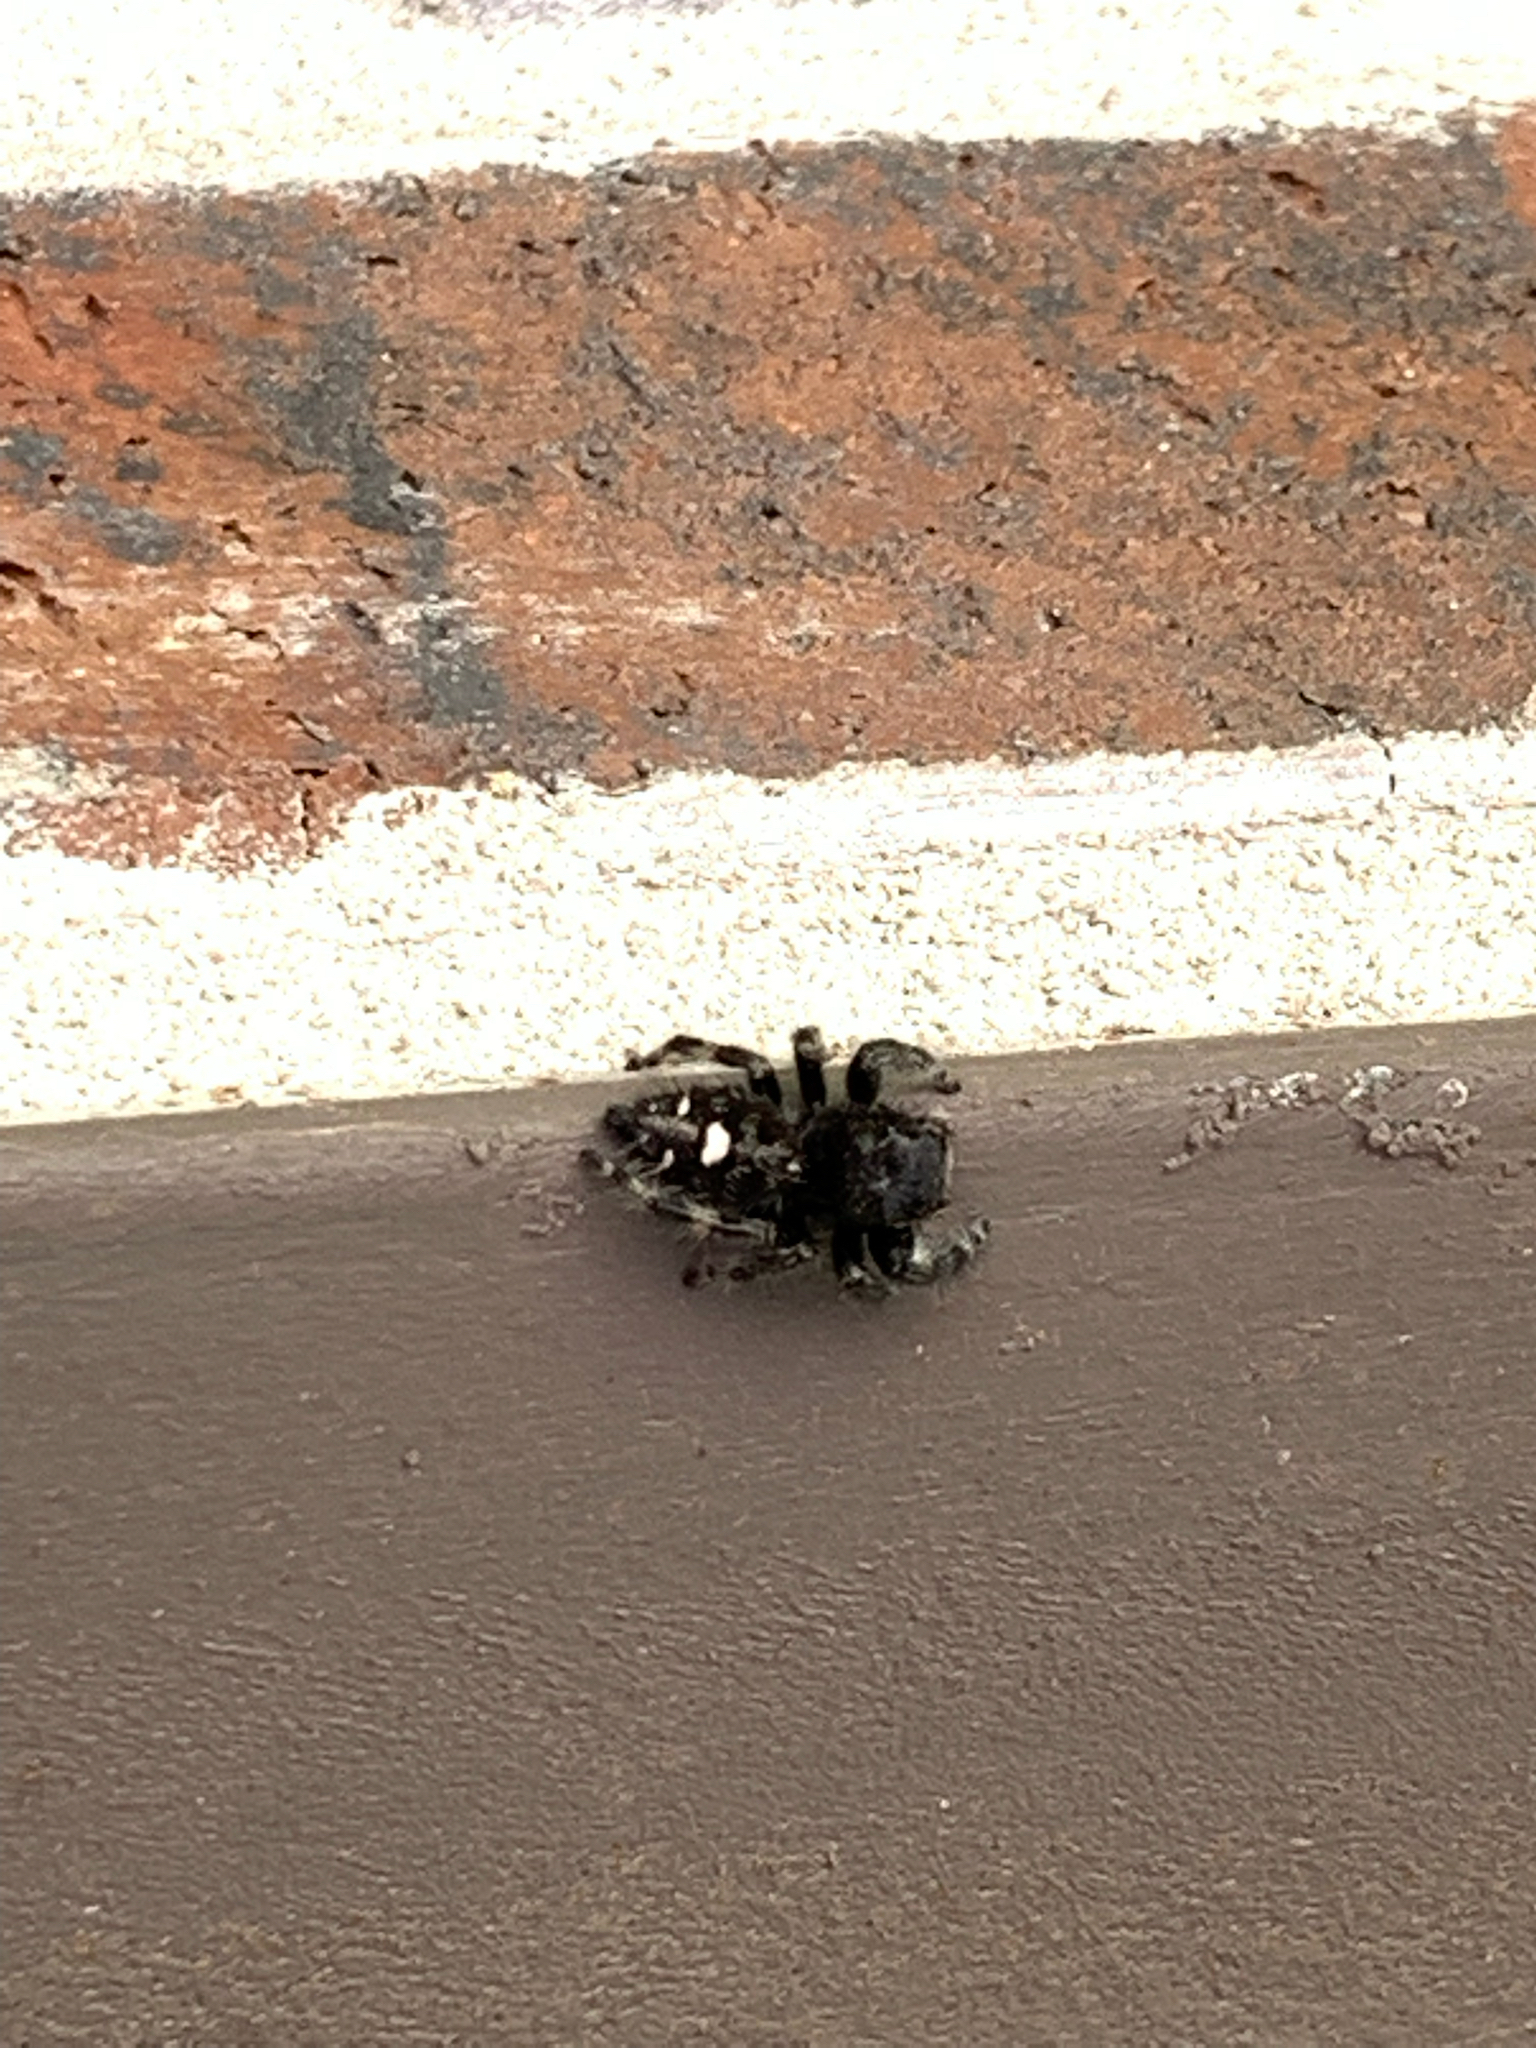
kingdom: Animalia
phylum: Arthropoda
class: Arachnida
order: Araneae
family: Salticidae
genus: Phidippus
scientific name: Phidippus audax
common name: Bold jumper
